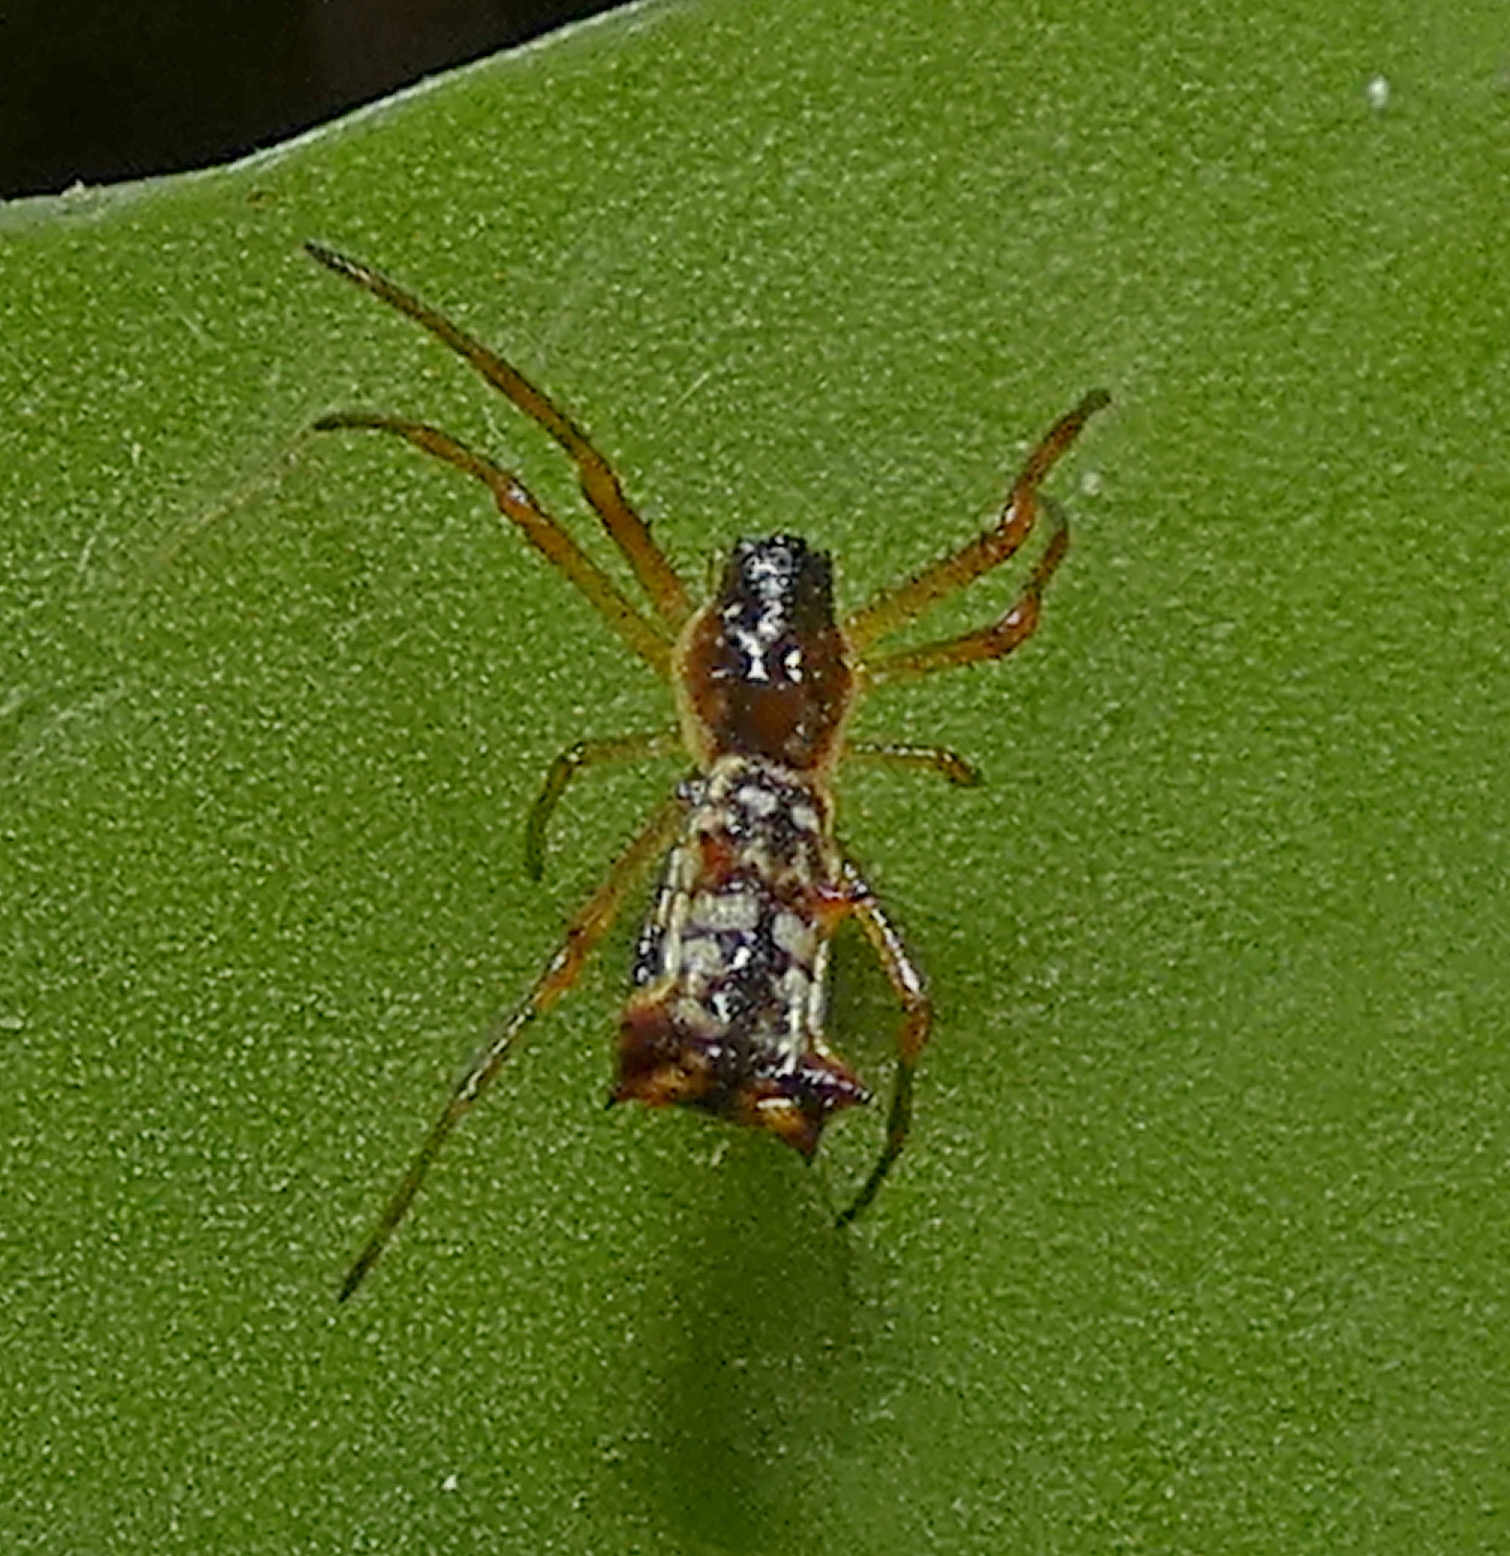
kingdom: Animalia
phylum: Arthropoda
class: Arachnida
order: Araneae
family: Araneidae
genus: Micrathena
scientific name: Micrathena fissispina
